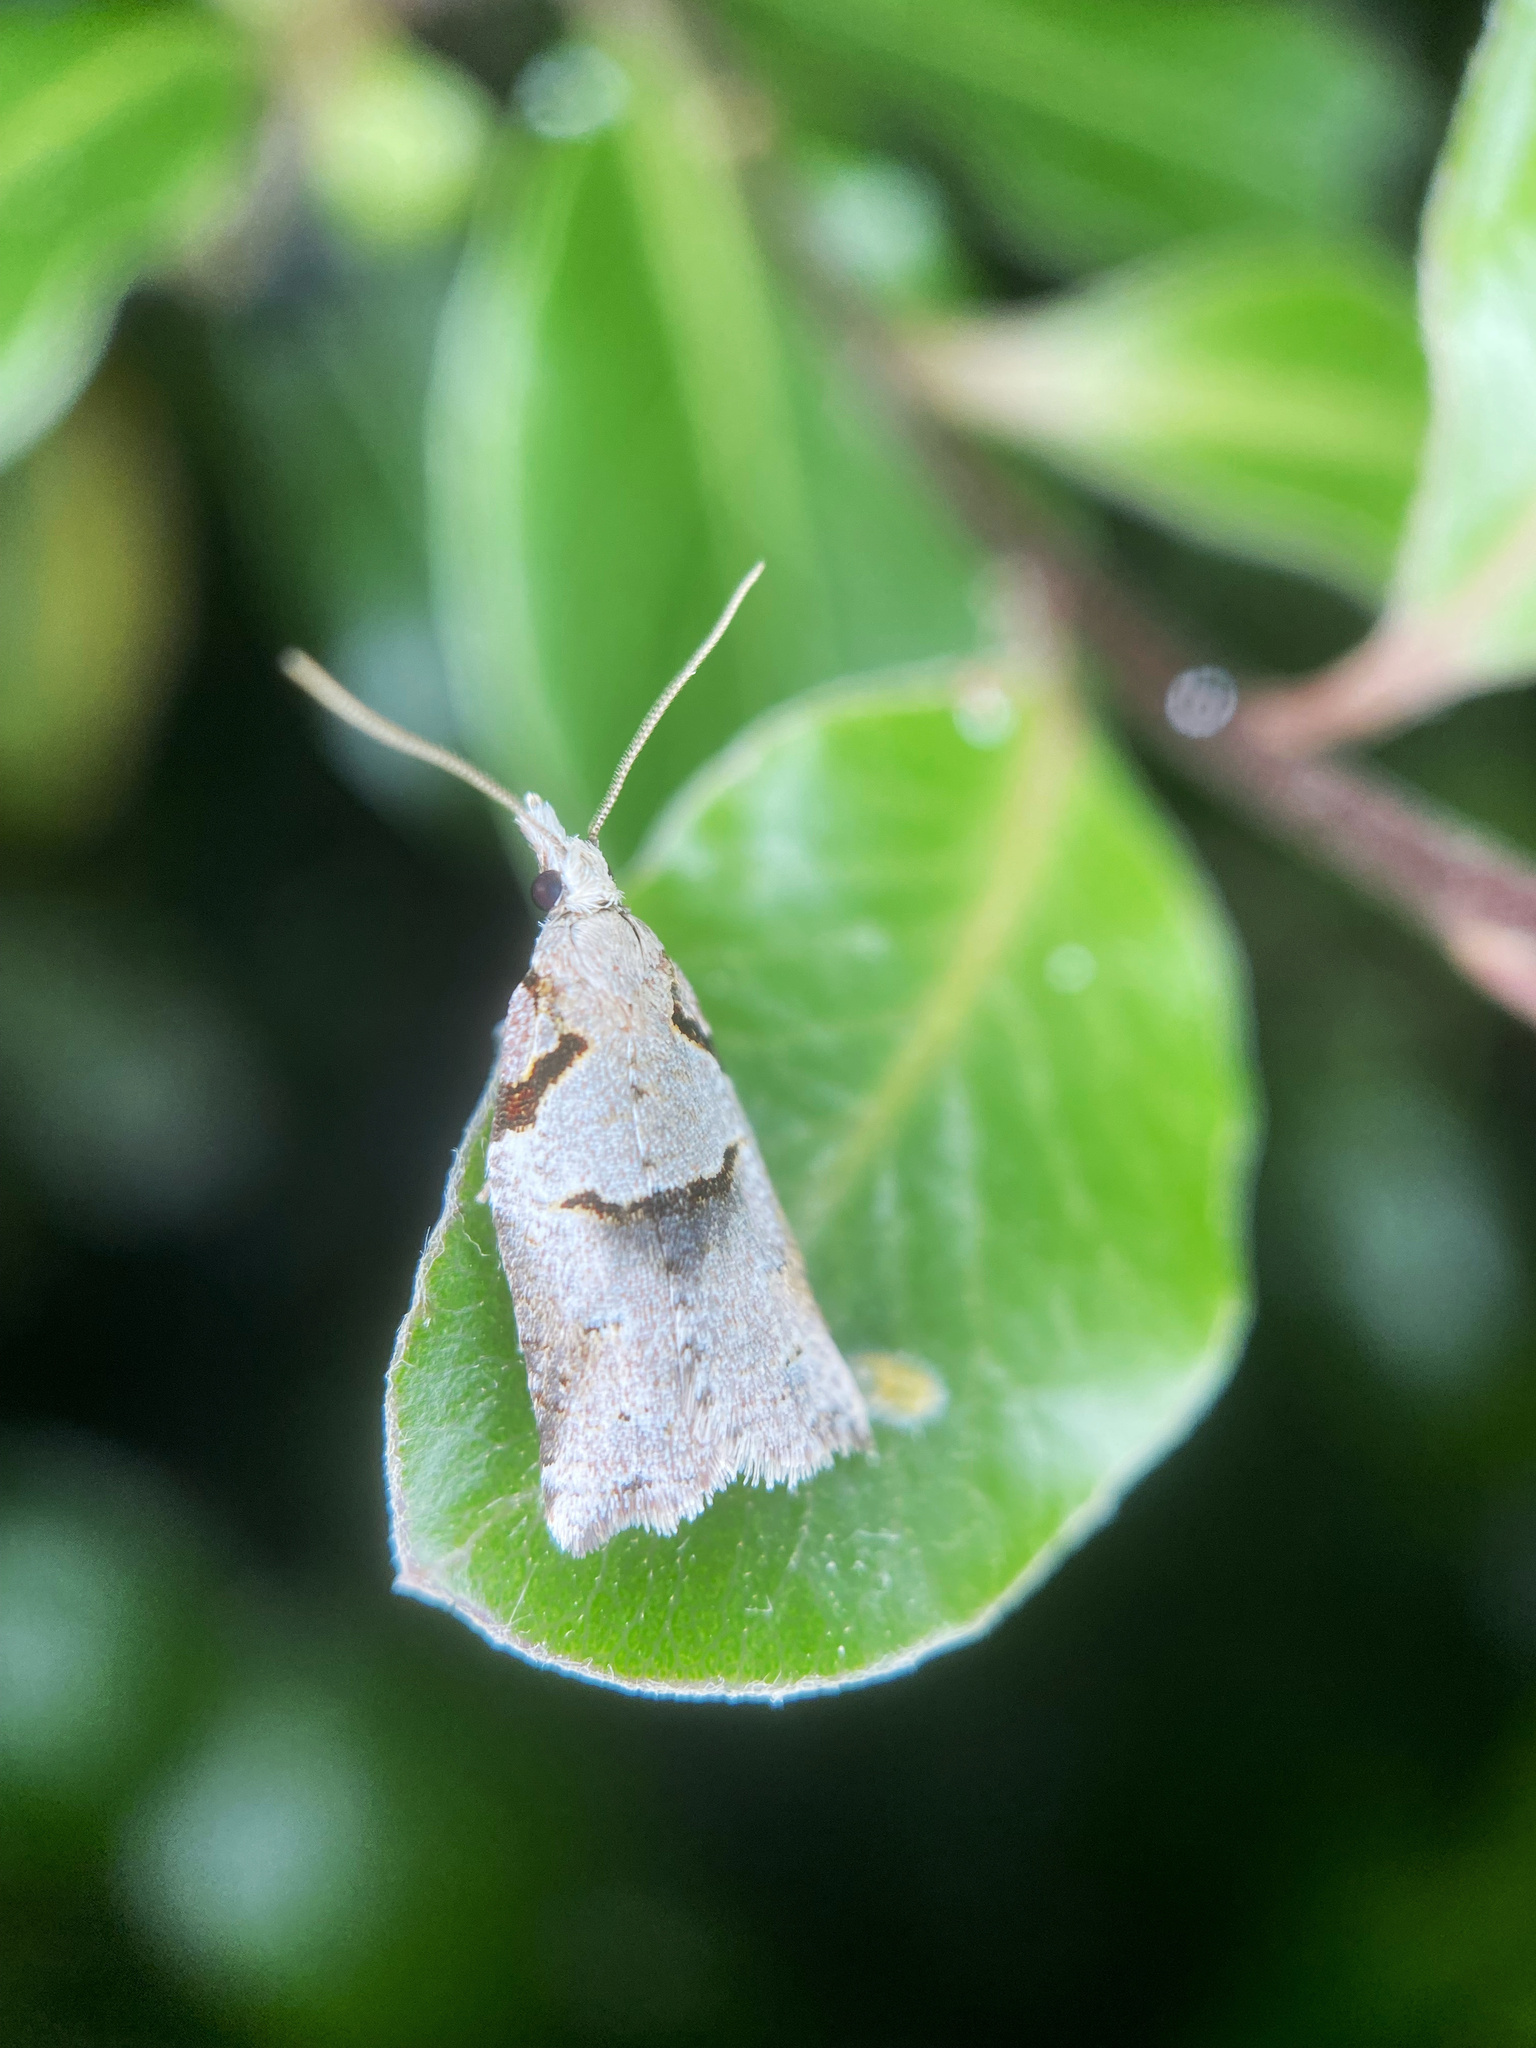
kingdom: Animalia
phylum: Arthropoda
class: Insecta
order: Lepidoptera
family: Tortricidae
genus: Harmologa
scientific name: Harmologa amplexana
